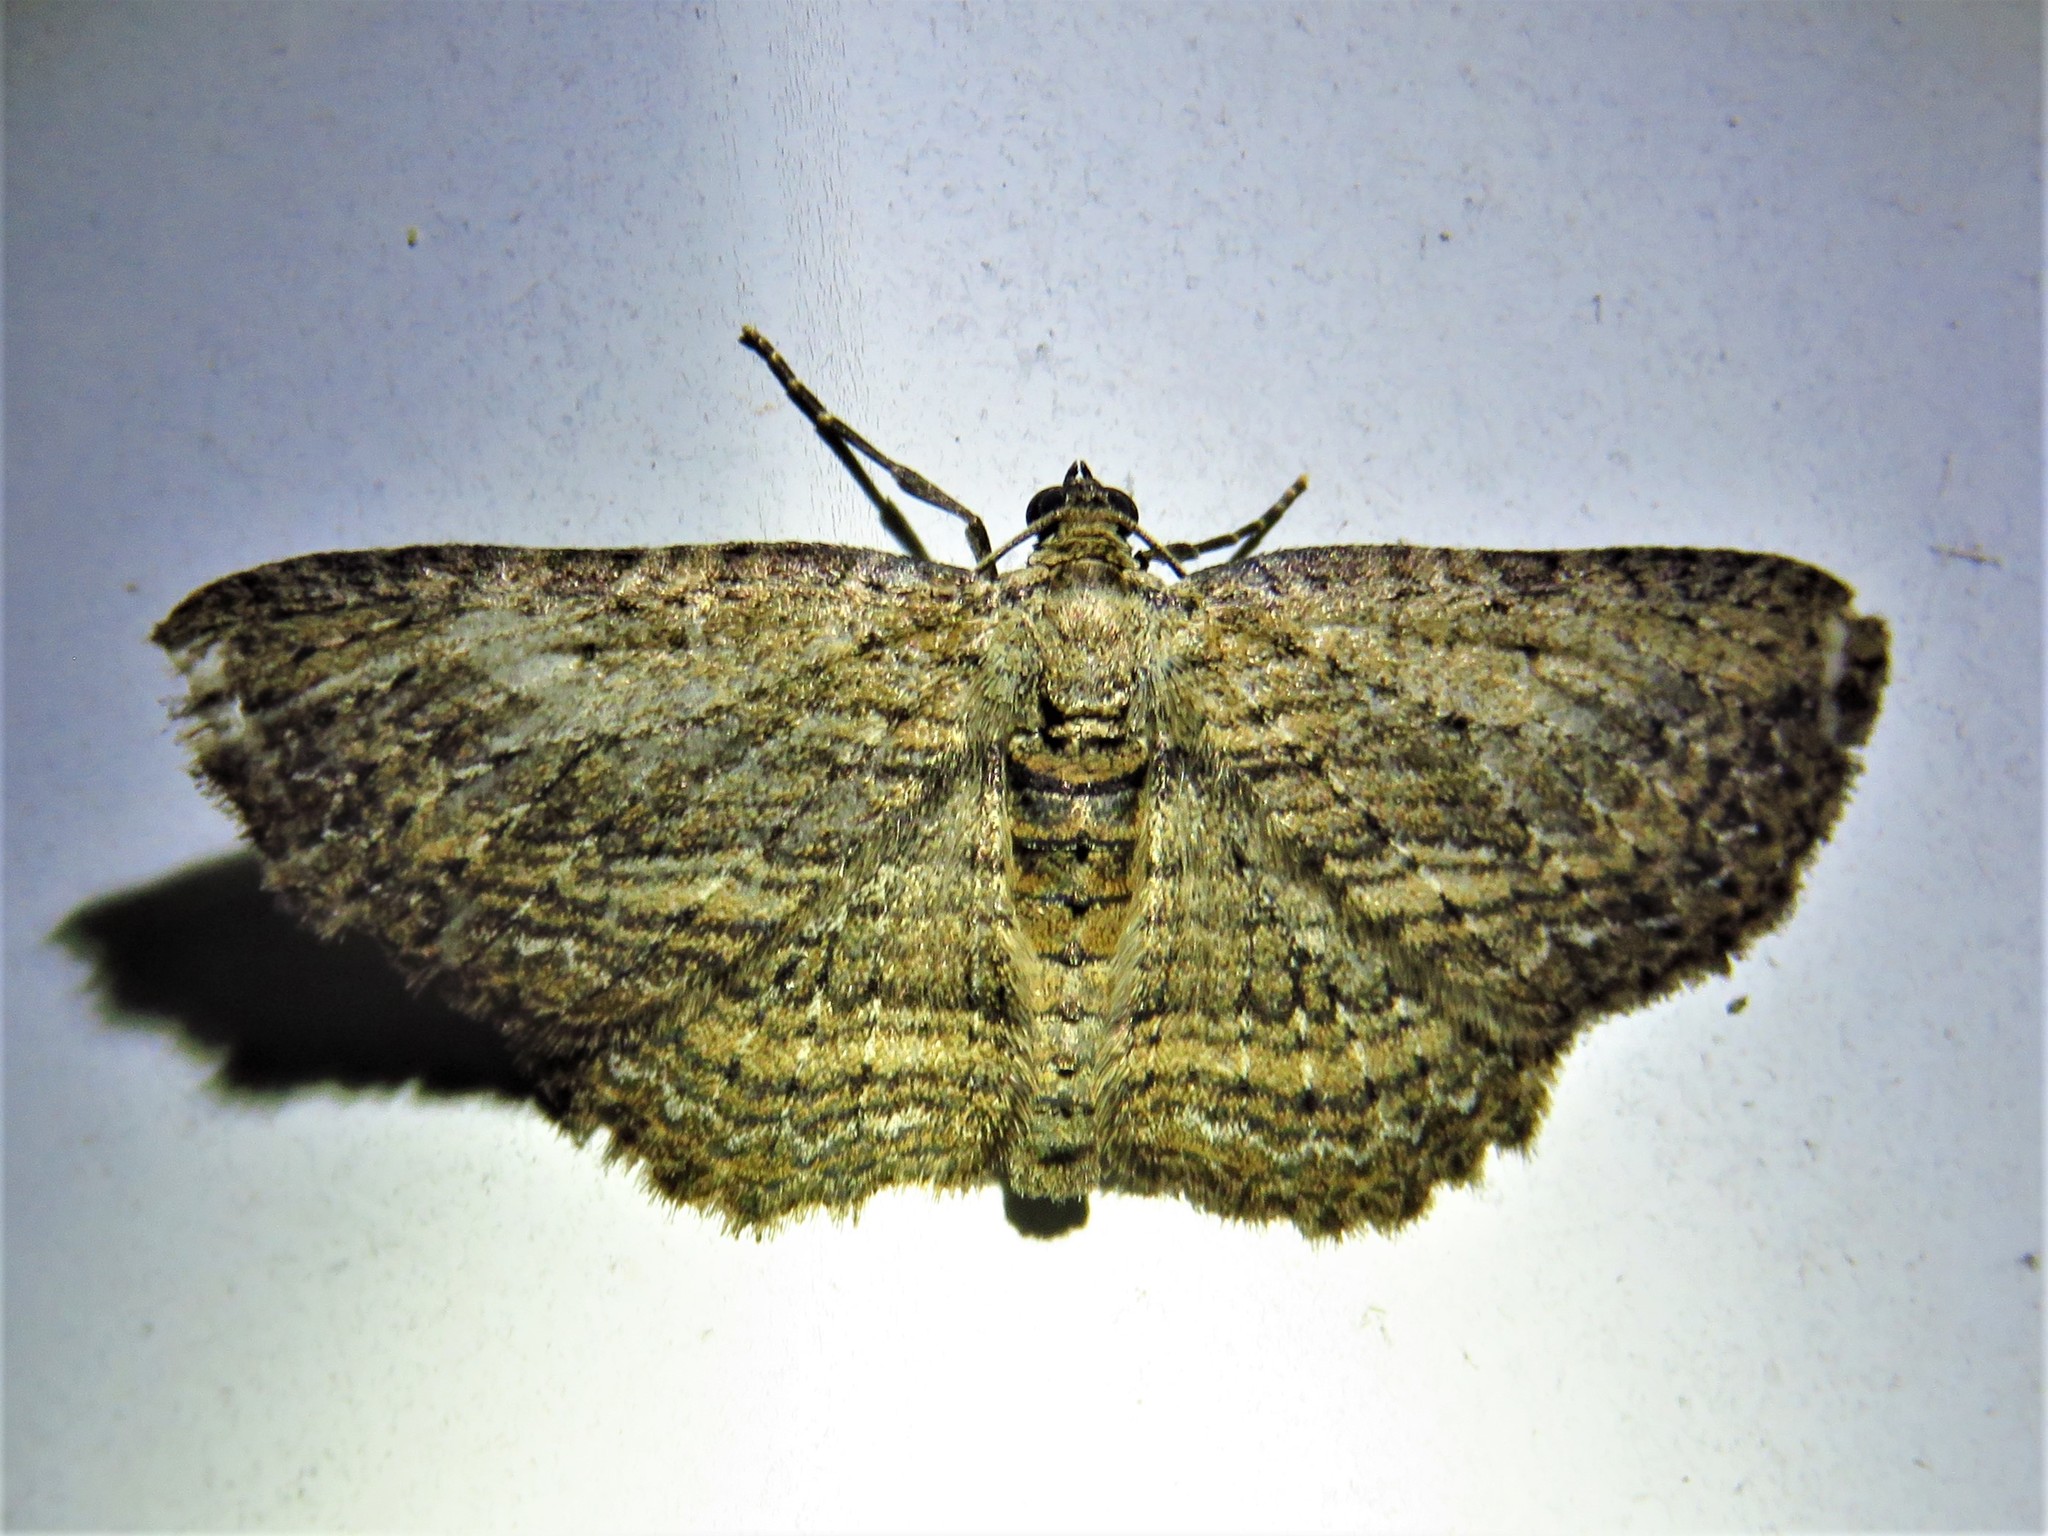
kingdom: Animalia
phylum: Arthropoda
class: Insecta
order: Lepidoptera
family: Geometridae
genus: Horisme
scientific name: Horisme intestinata
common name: Brown bark carpet
